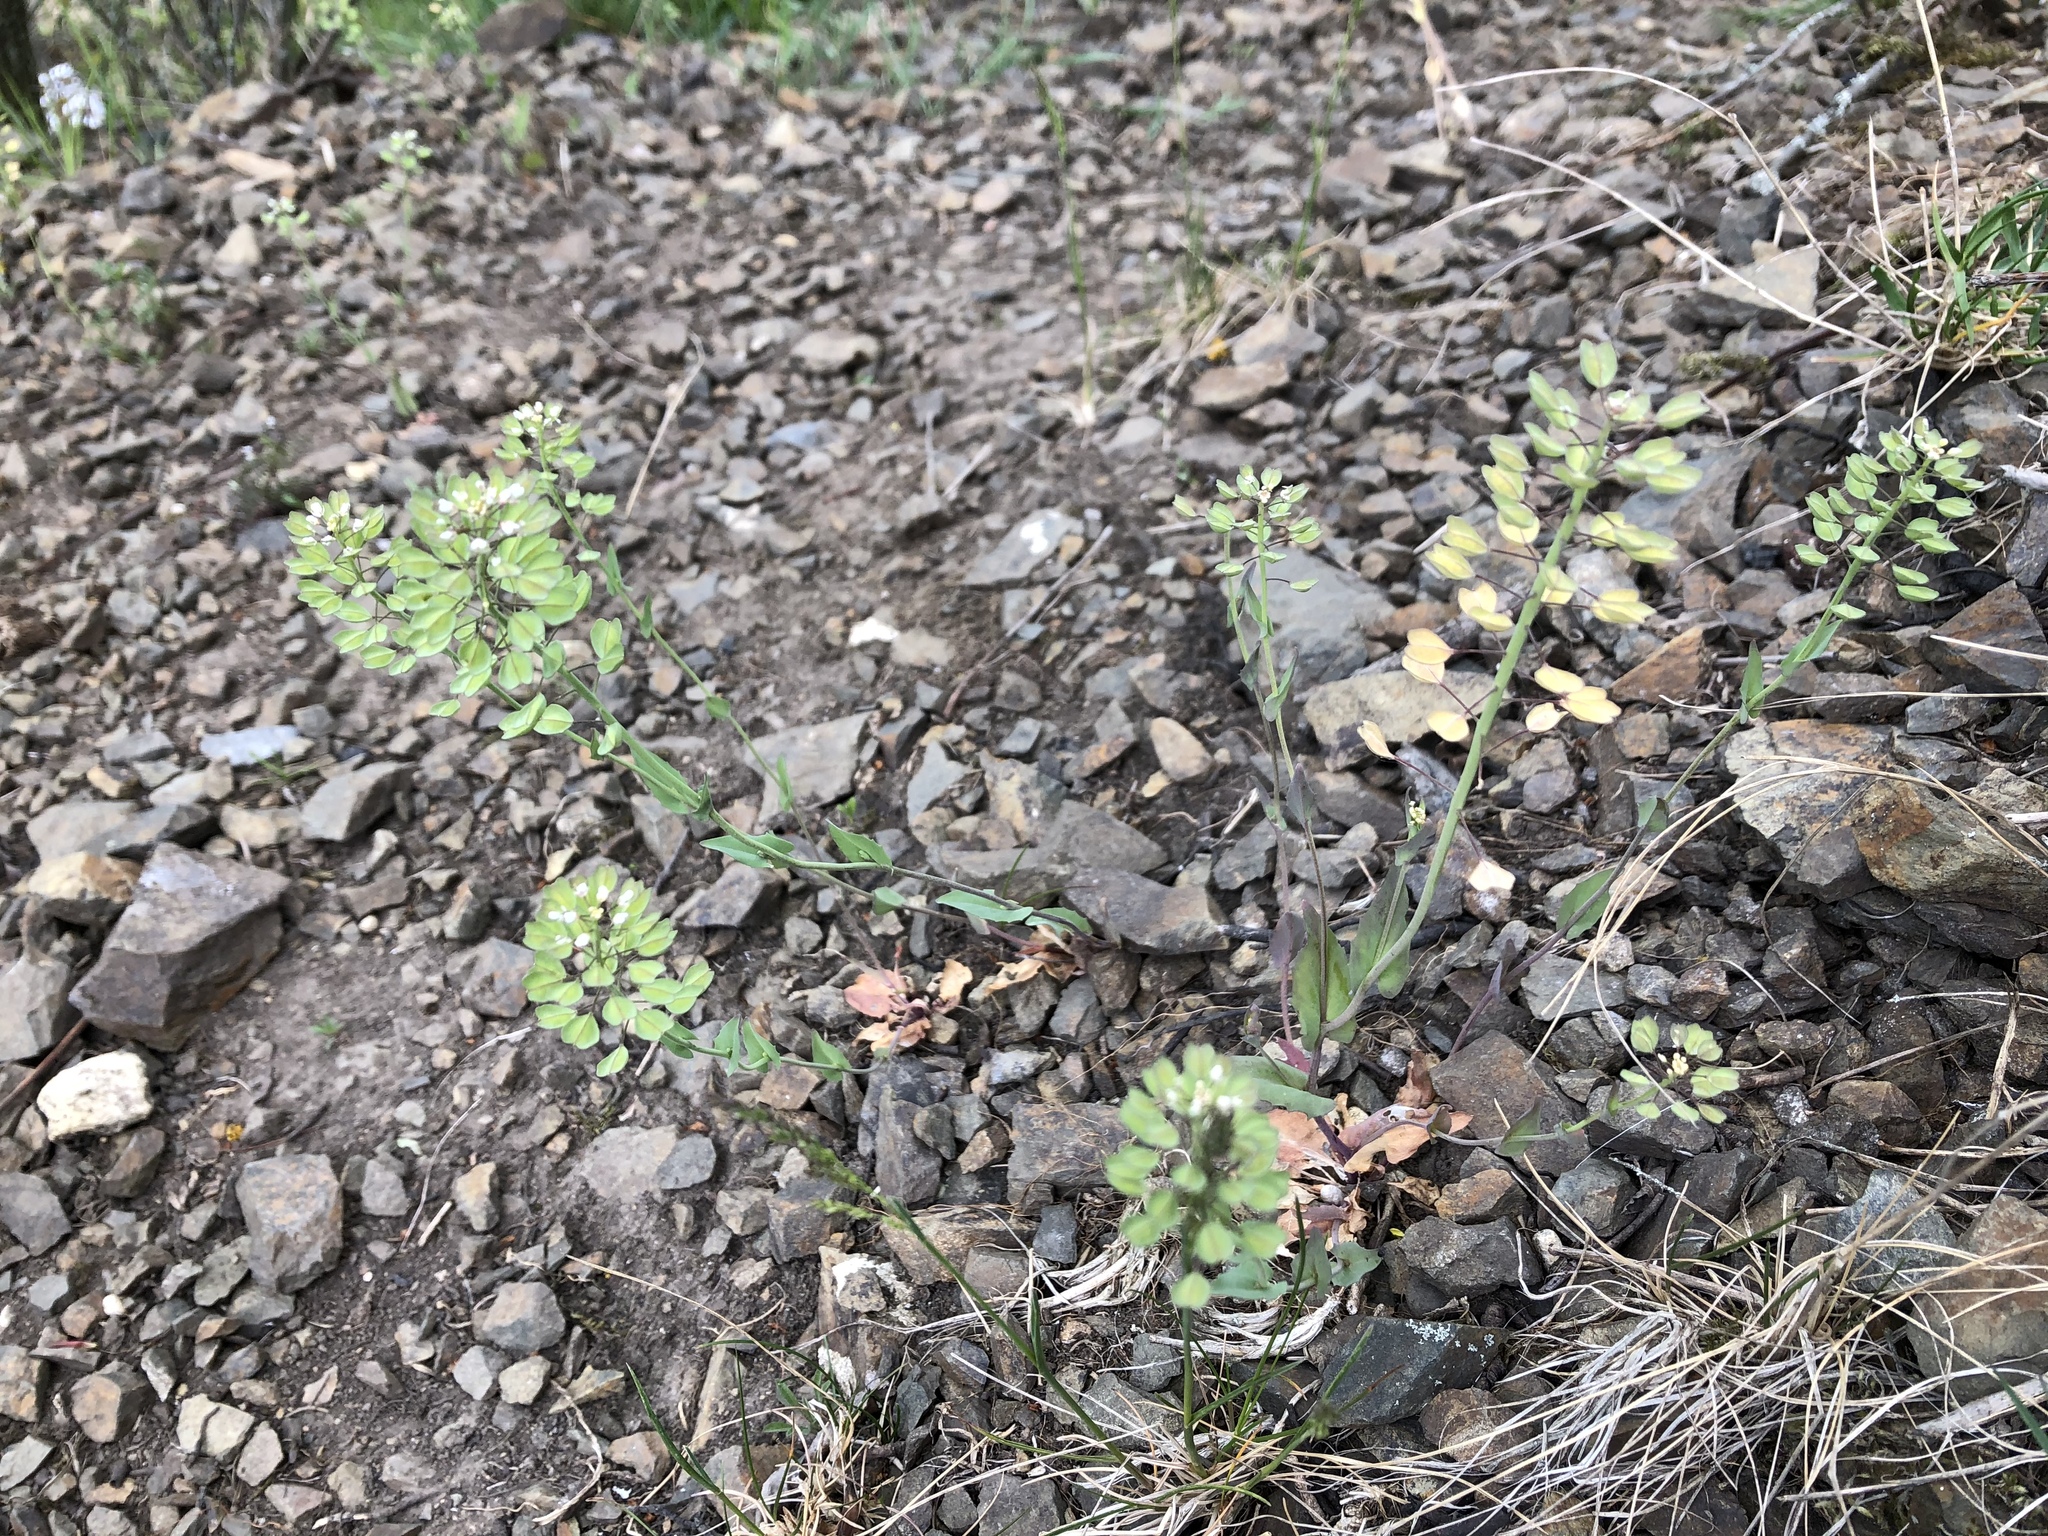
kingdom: Plantae
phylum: Tracheophyta
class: Magnoliopsida
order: Brassicales
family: Brassicaceae
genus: Noccaea
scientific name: Noccaea perfoliata
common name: Perfoliate pennycress
